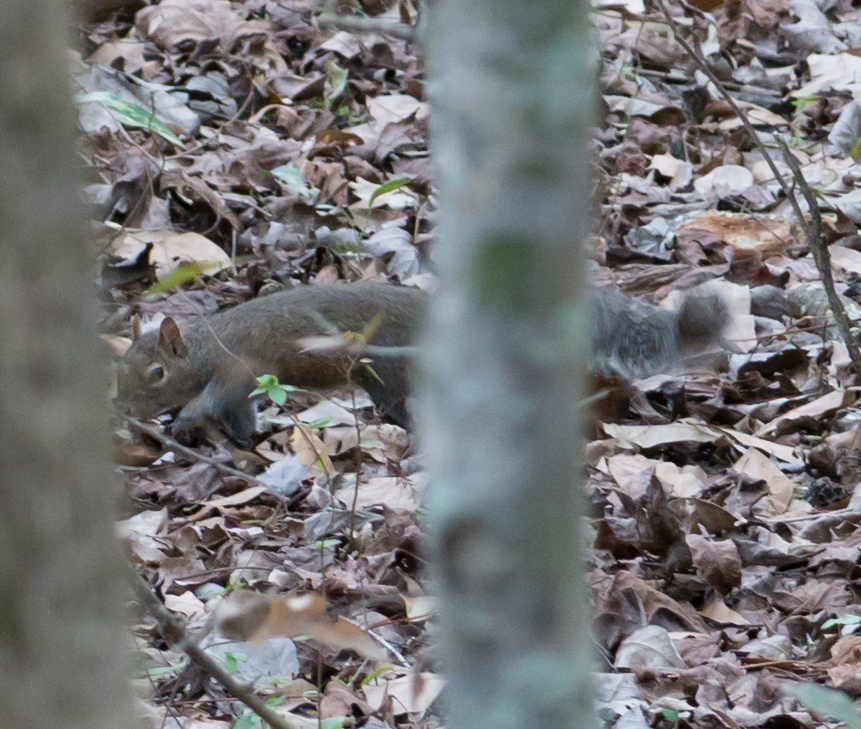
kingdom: Animalia
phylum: Chordata
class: Mammalia
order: Rodentia
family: Sciuridae
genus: Sciurus
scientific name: Sciurus carolinensis
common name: Eastern gray squirrel
